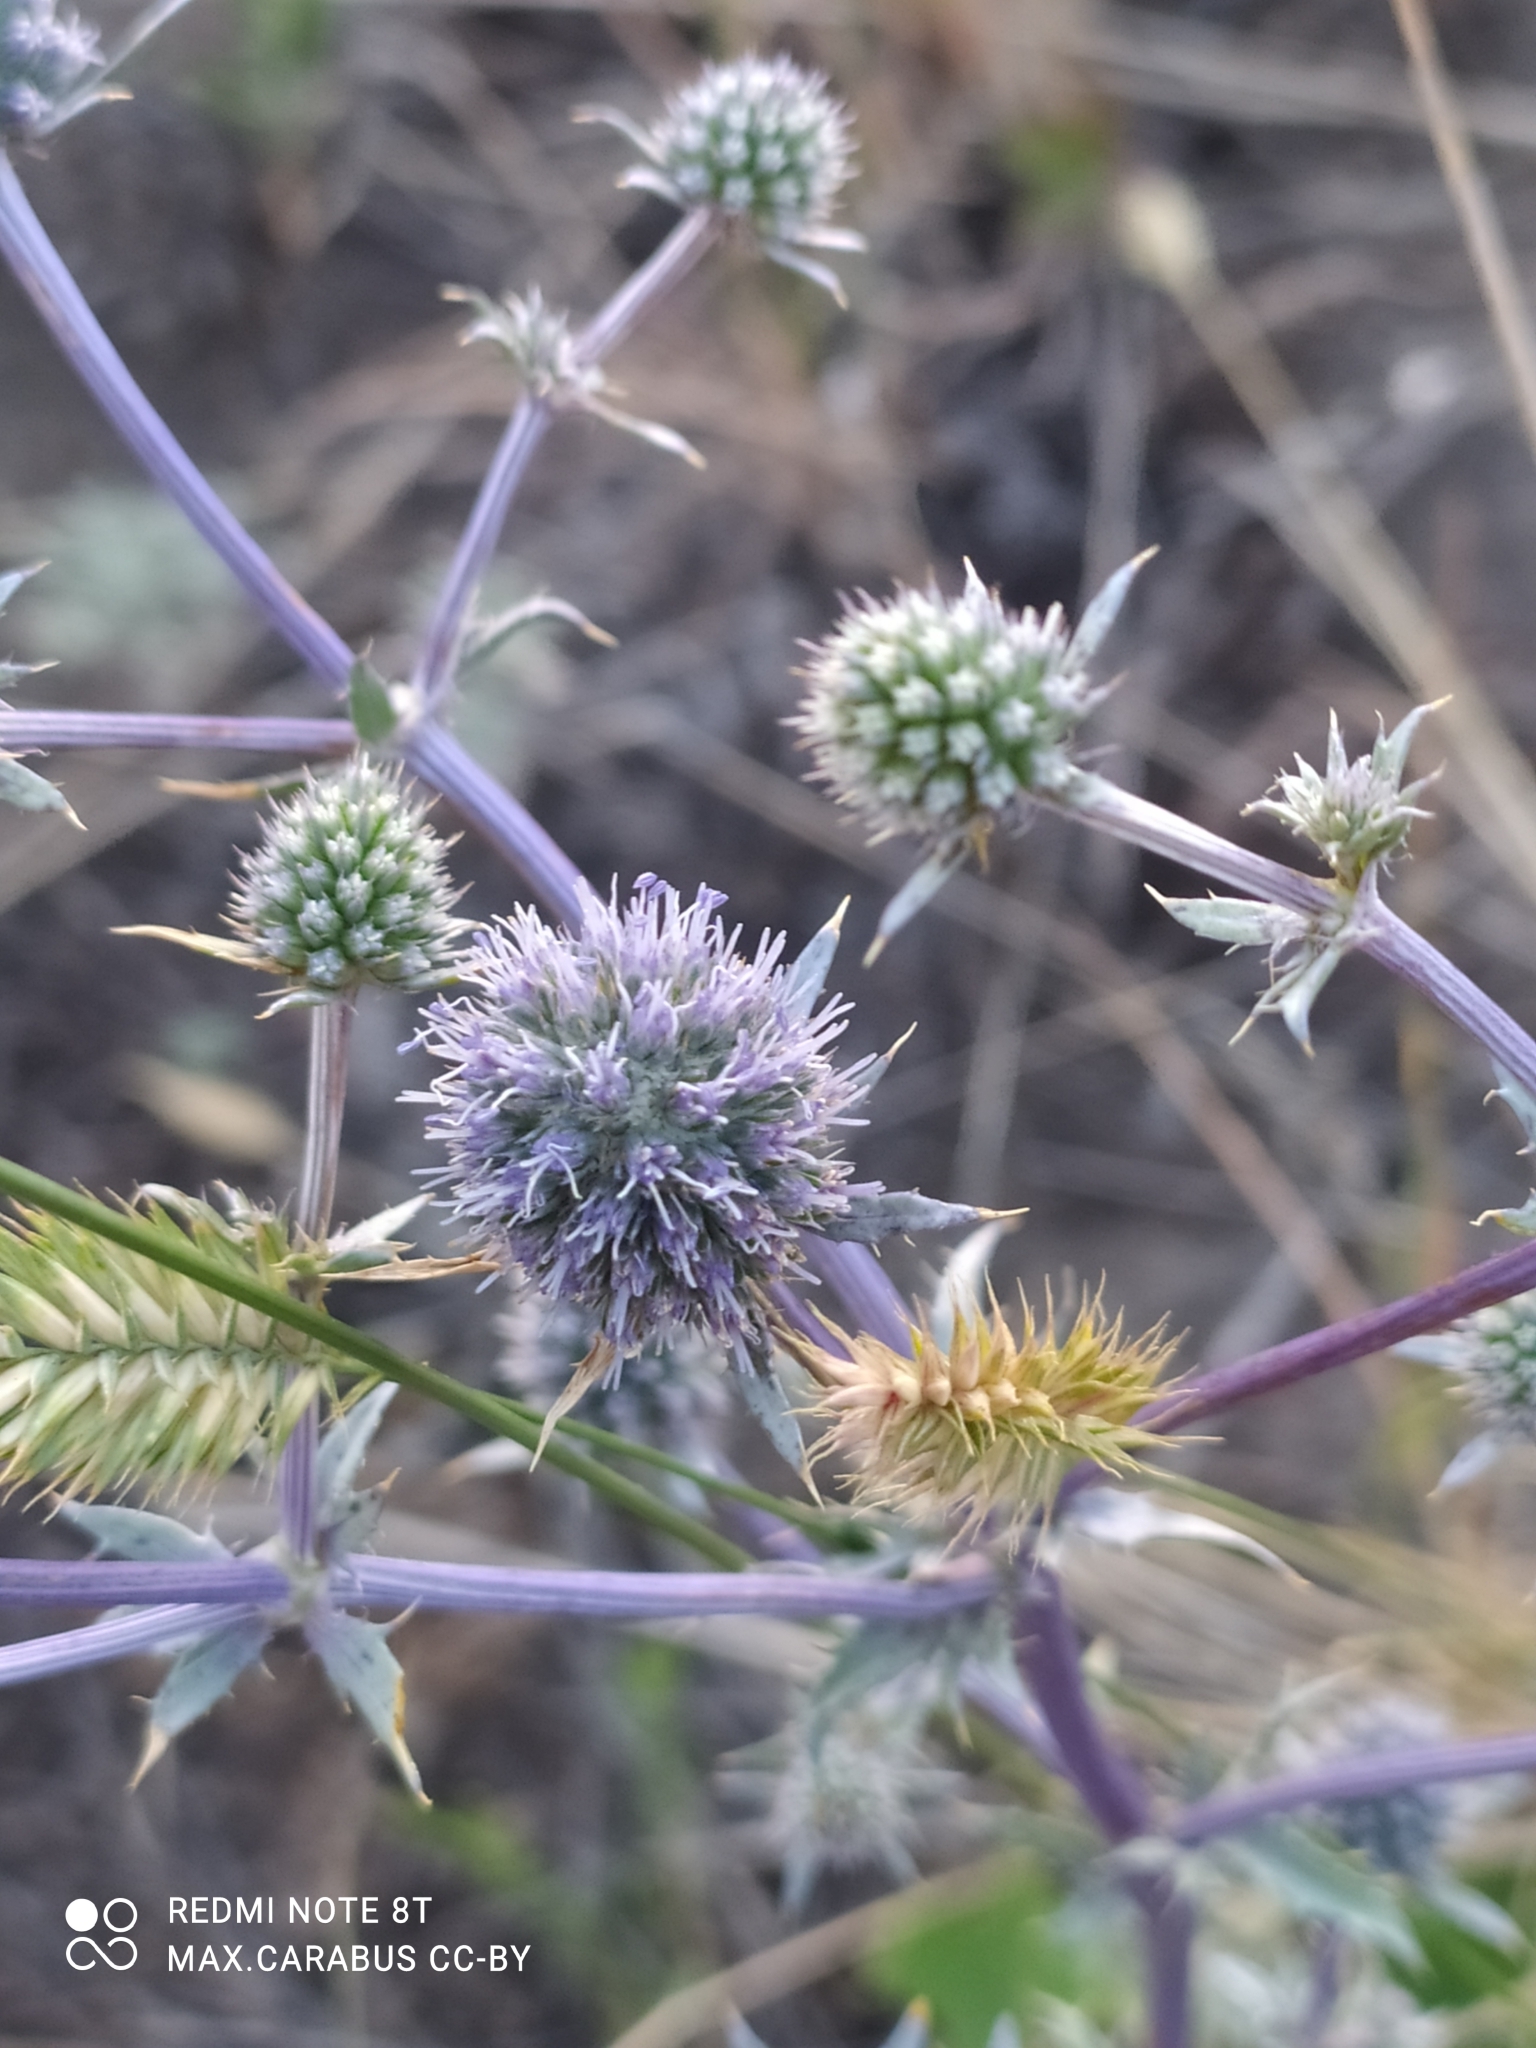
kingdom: Plantae
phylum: Tracheophyta
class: Magnoliopsida
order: Apiales
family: Apiaceae
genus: Eryngium
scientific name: Eryngium planum
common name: Blue eryngo
